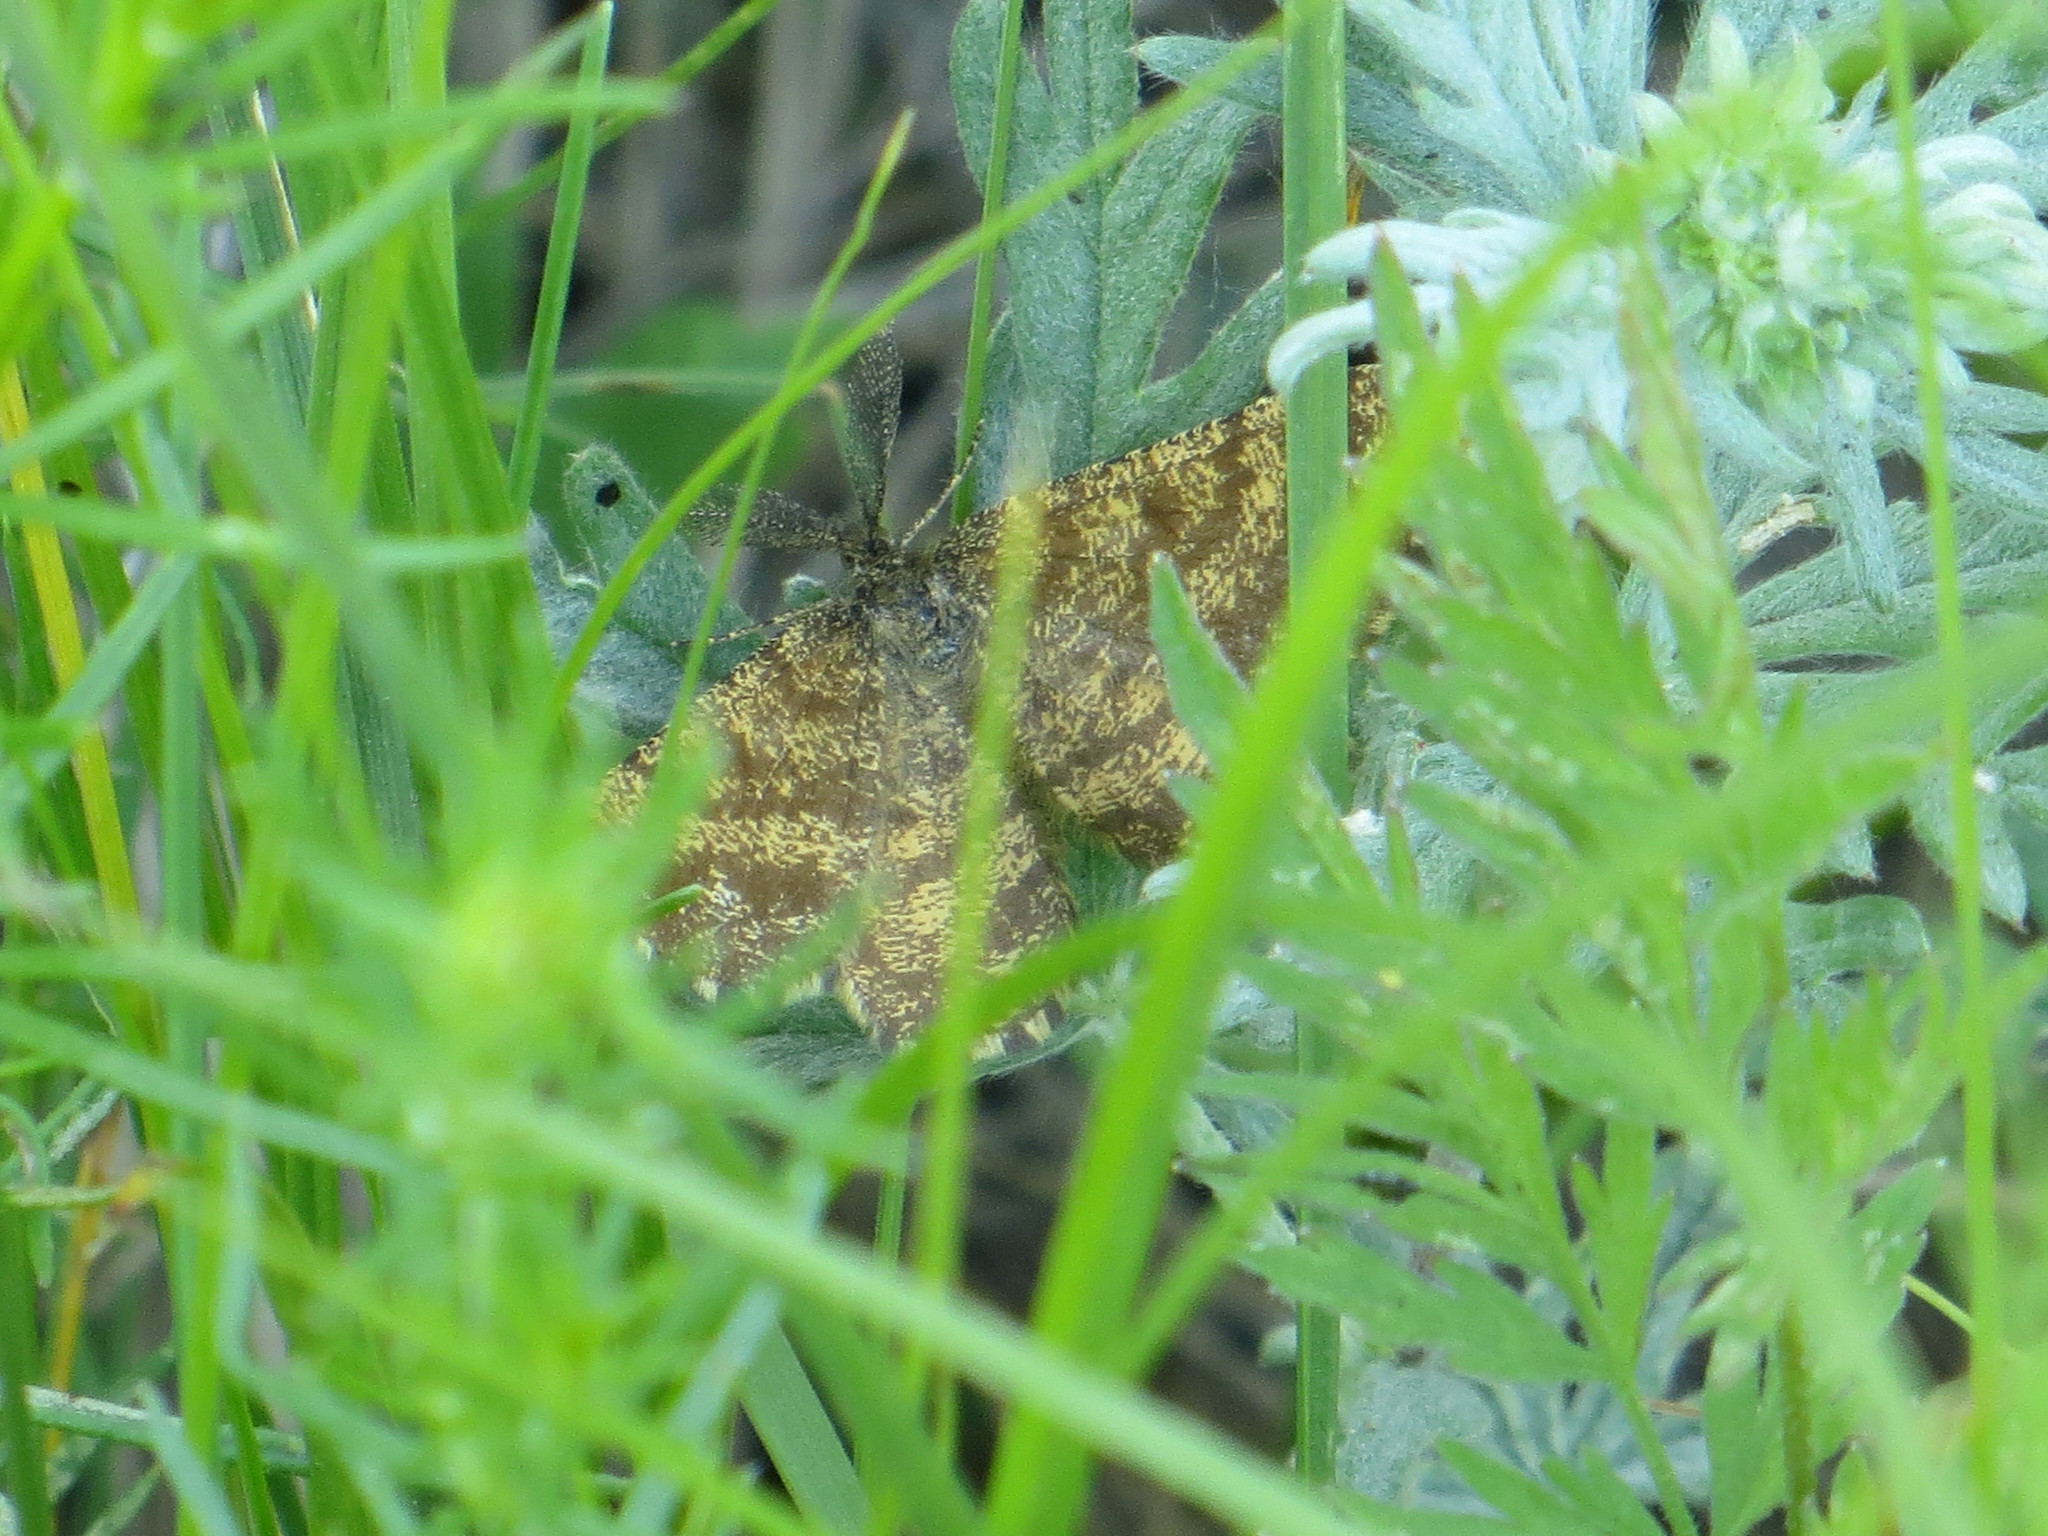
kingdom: Animalia
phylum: Arthropoda
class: Insecta
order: Lepidoptera
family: Geometridae
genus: Ematurga
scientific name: Ematurga atomaria
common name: Common heath
